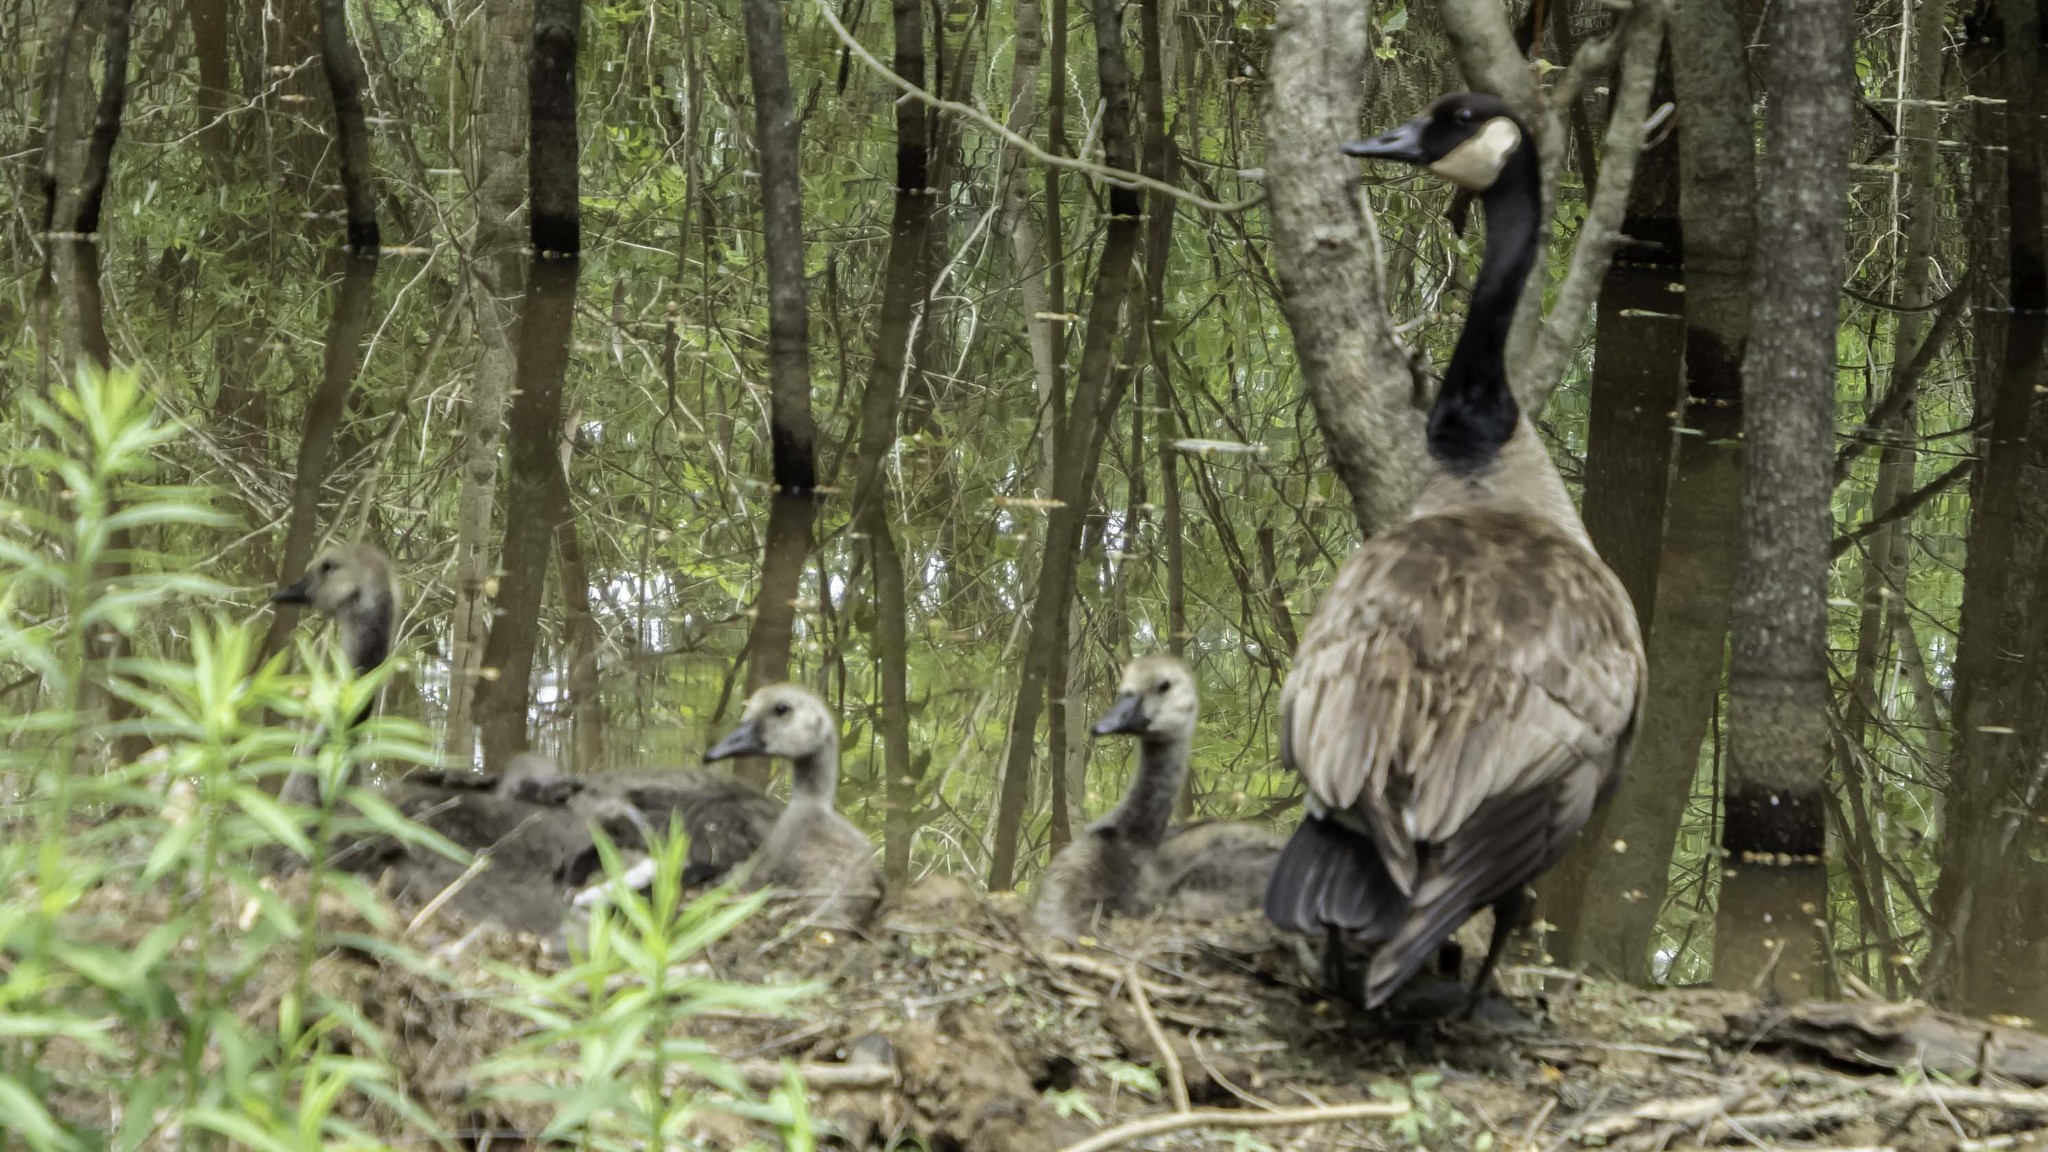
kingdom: Animalia
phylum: Chordata
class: Aves
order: Anseriformes
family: Anatidae
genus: Branta
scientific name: Branta canadensis
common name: Canada goose
